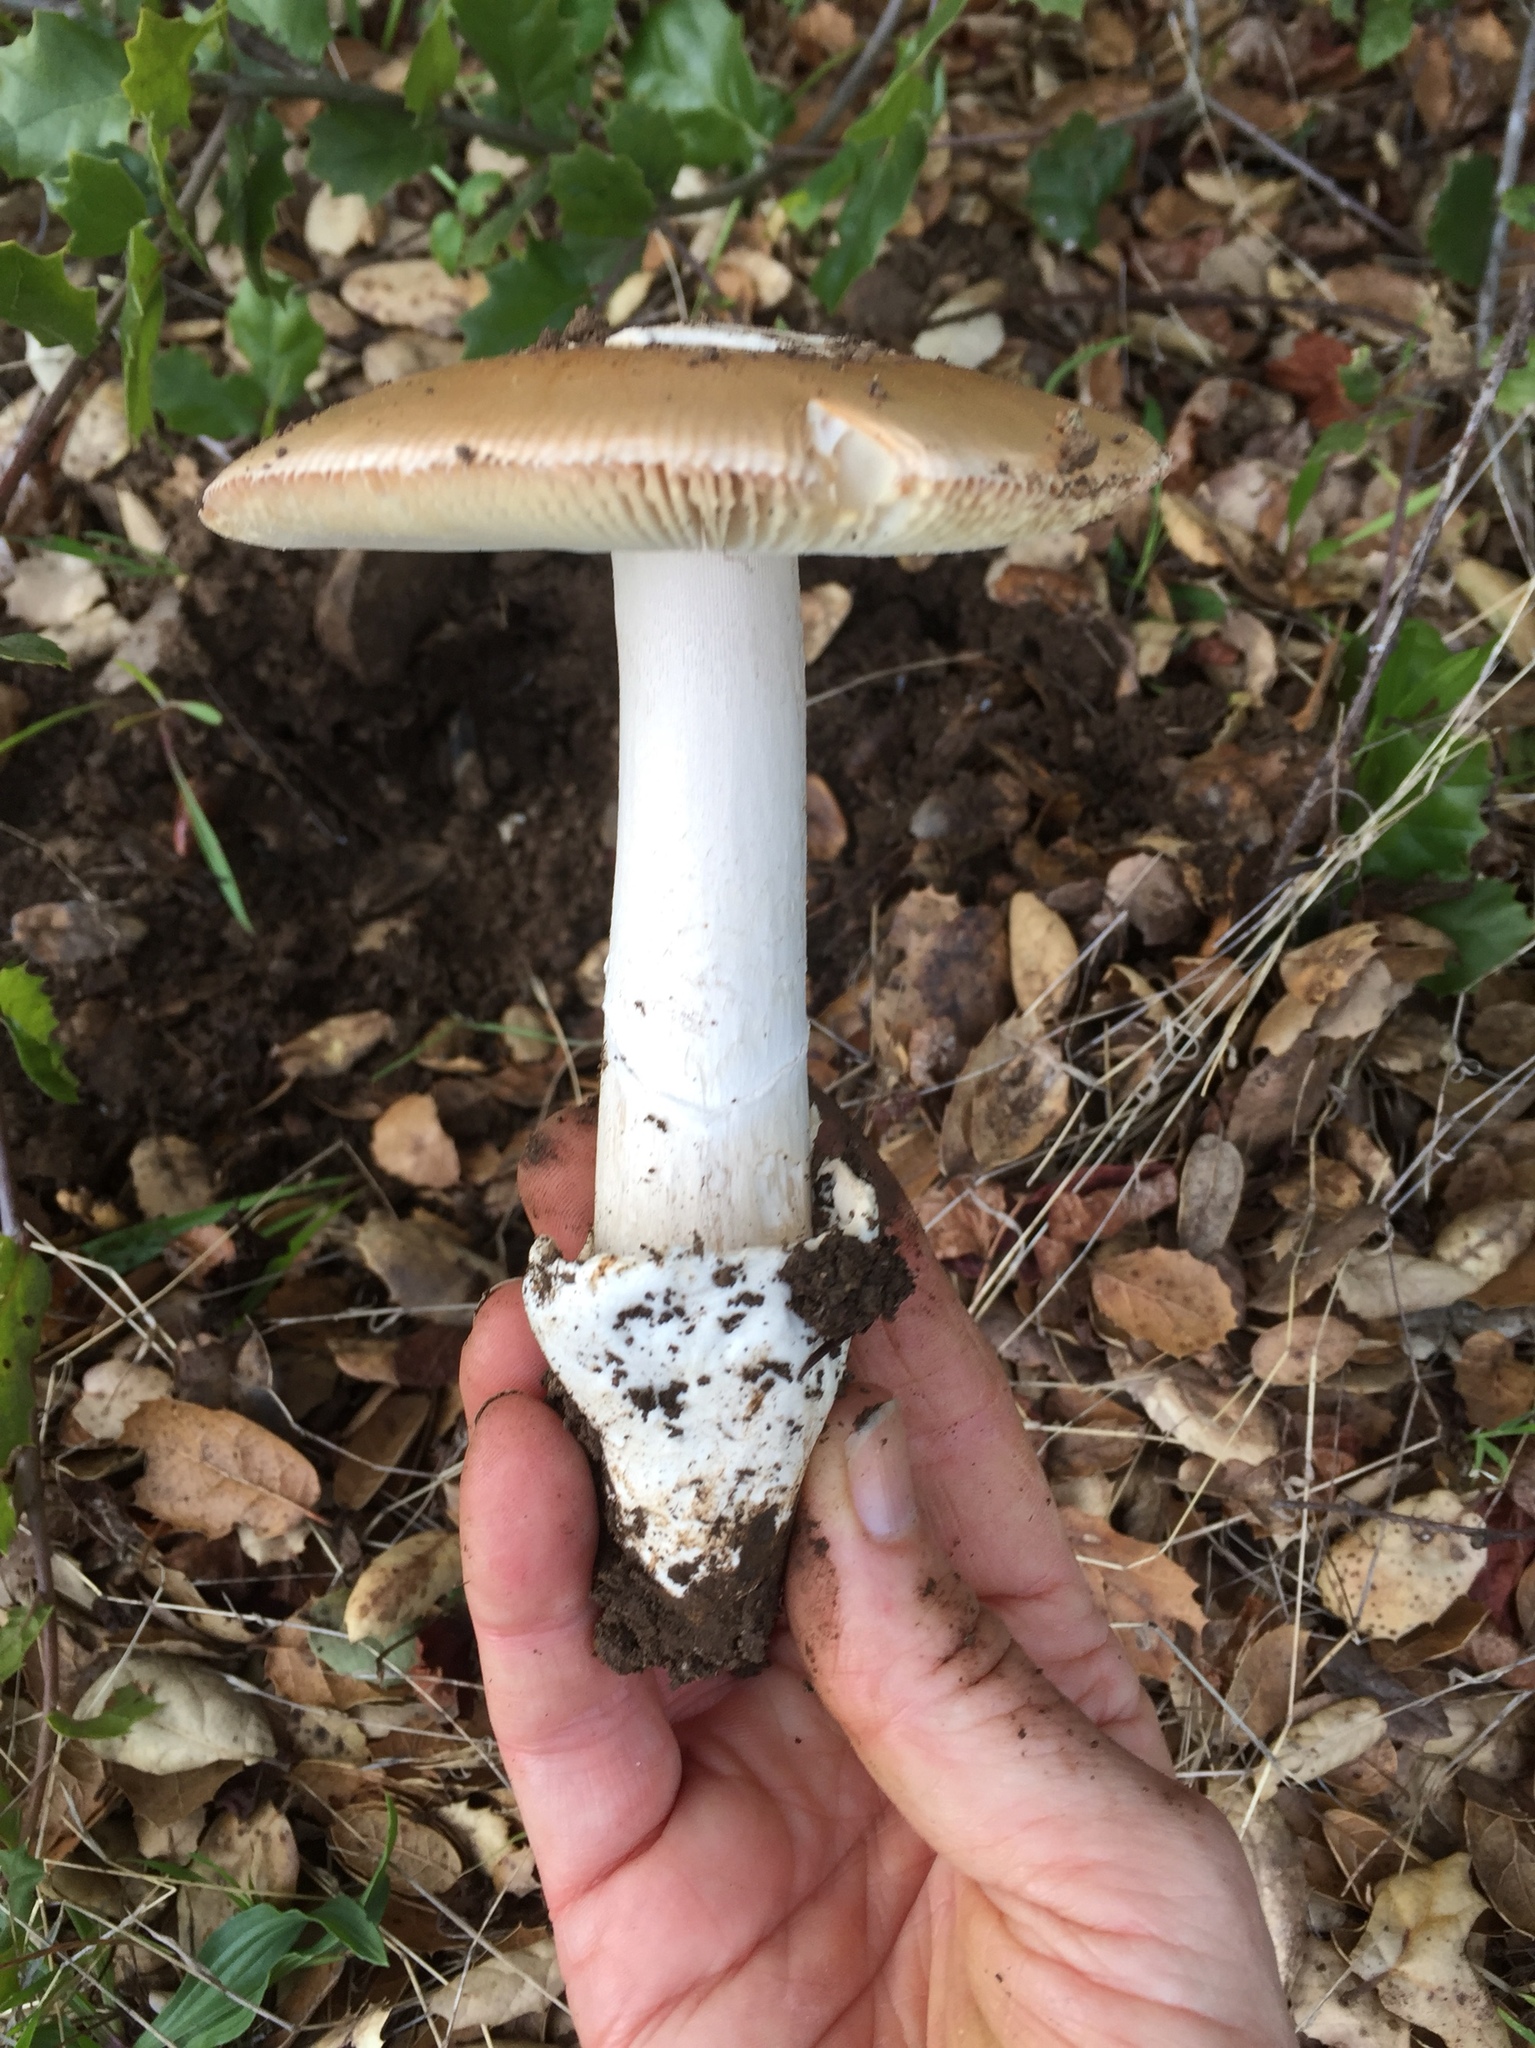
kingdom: Fungi
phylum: Basidiomycota
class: Agaricomycetes
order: Agaricales
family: Amanitaceae
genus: Amanita
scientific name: Amanita velosa
